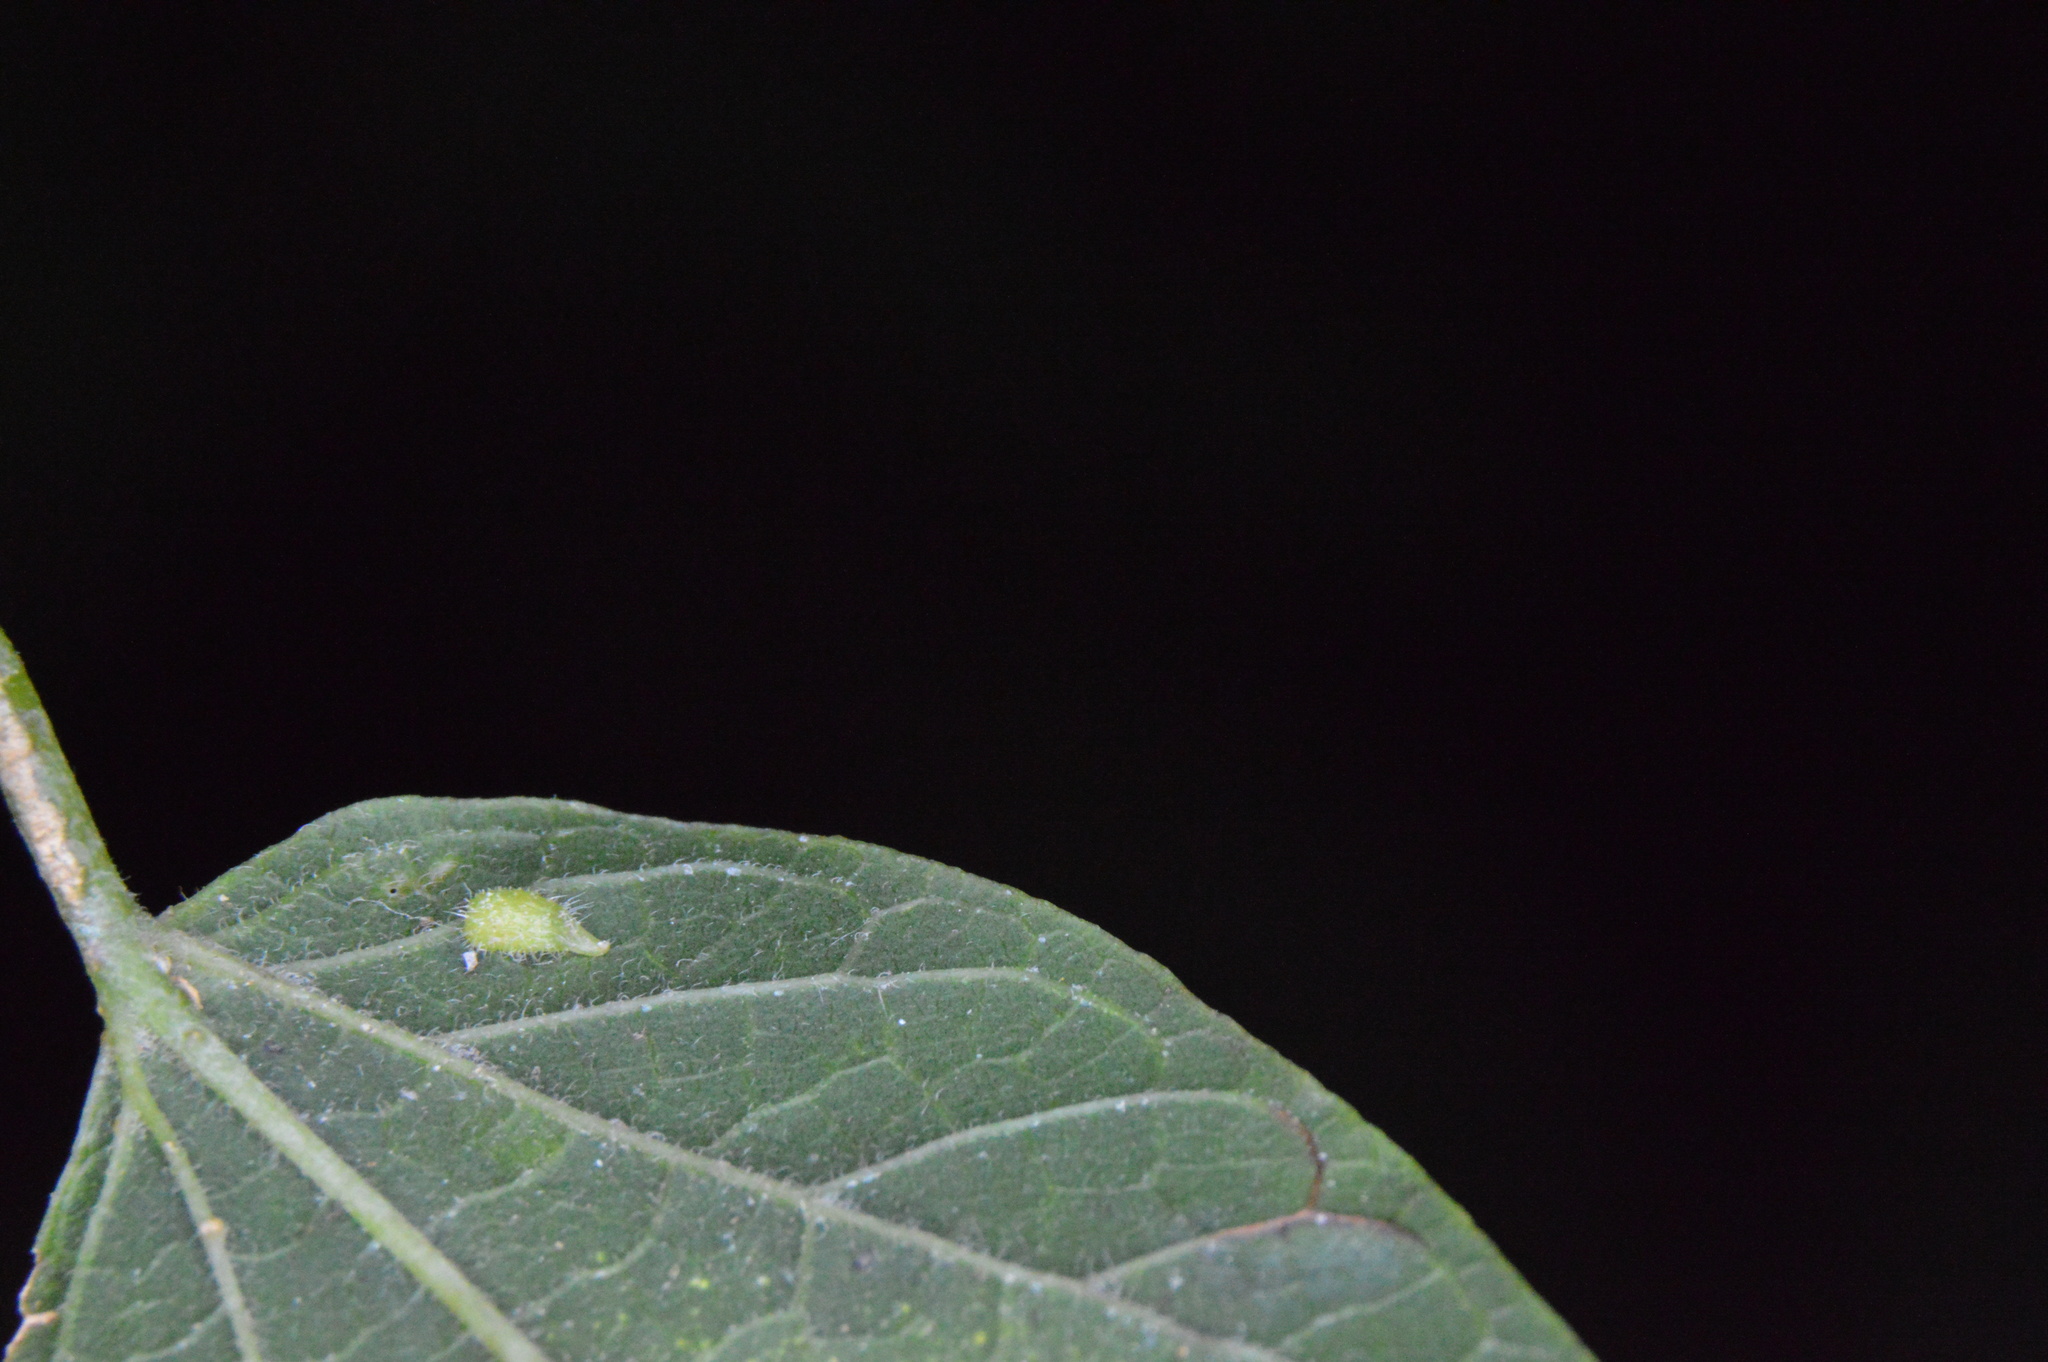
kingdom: Animalia
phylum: Arthropoda
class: Insecta
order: Diptera
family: Cecidomyiidae
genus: Celticecis
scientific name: Celticecis supina
